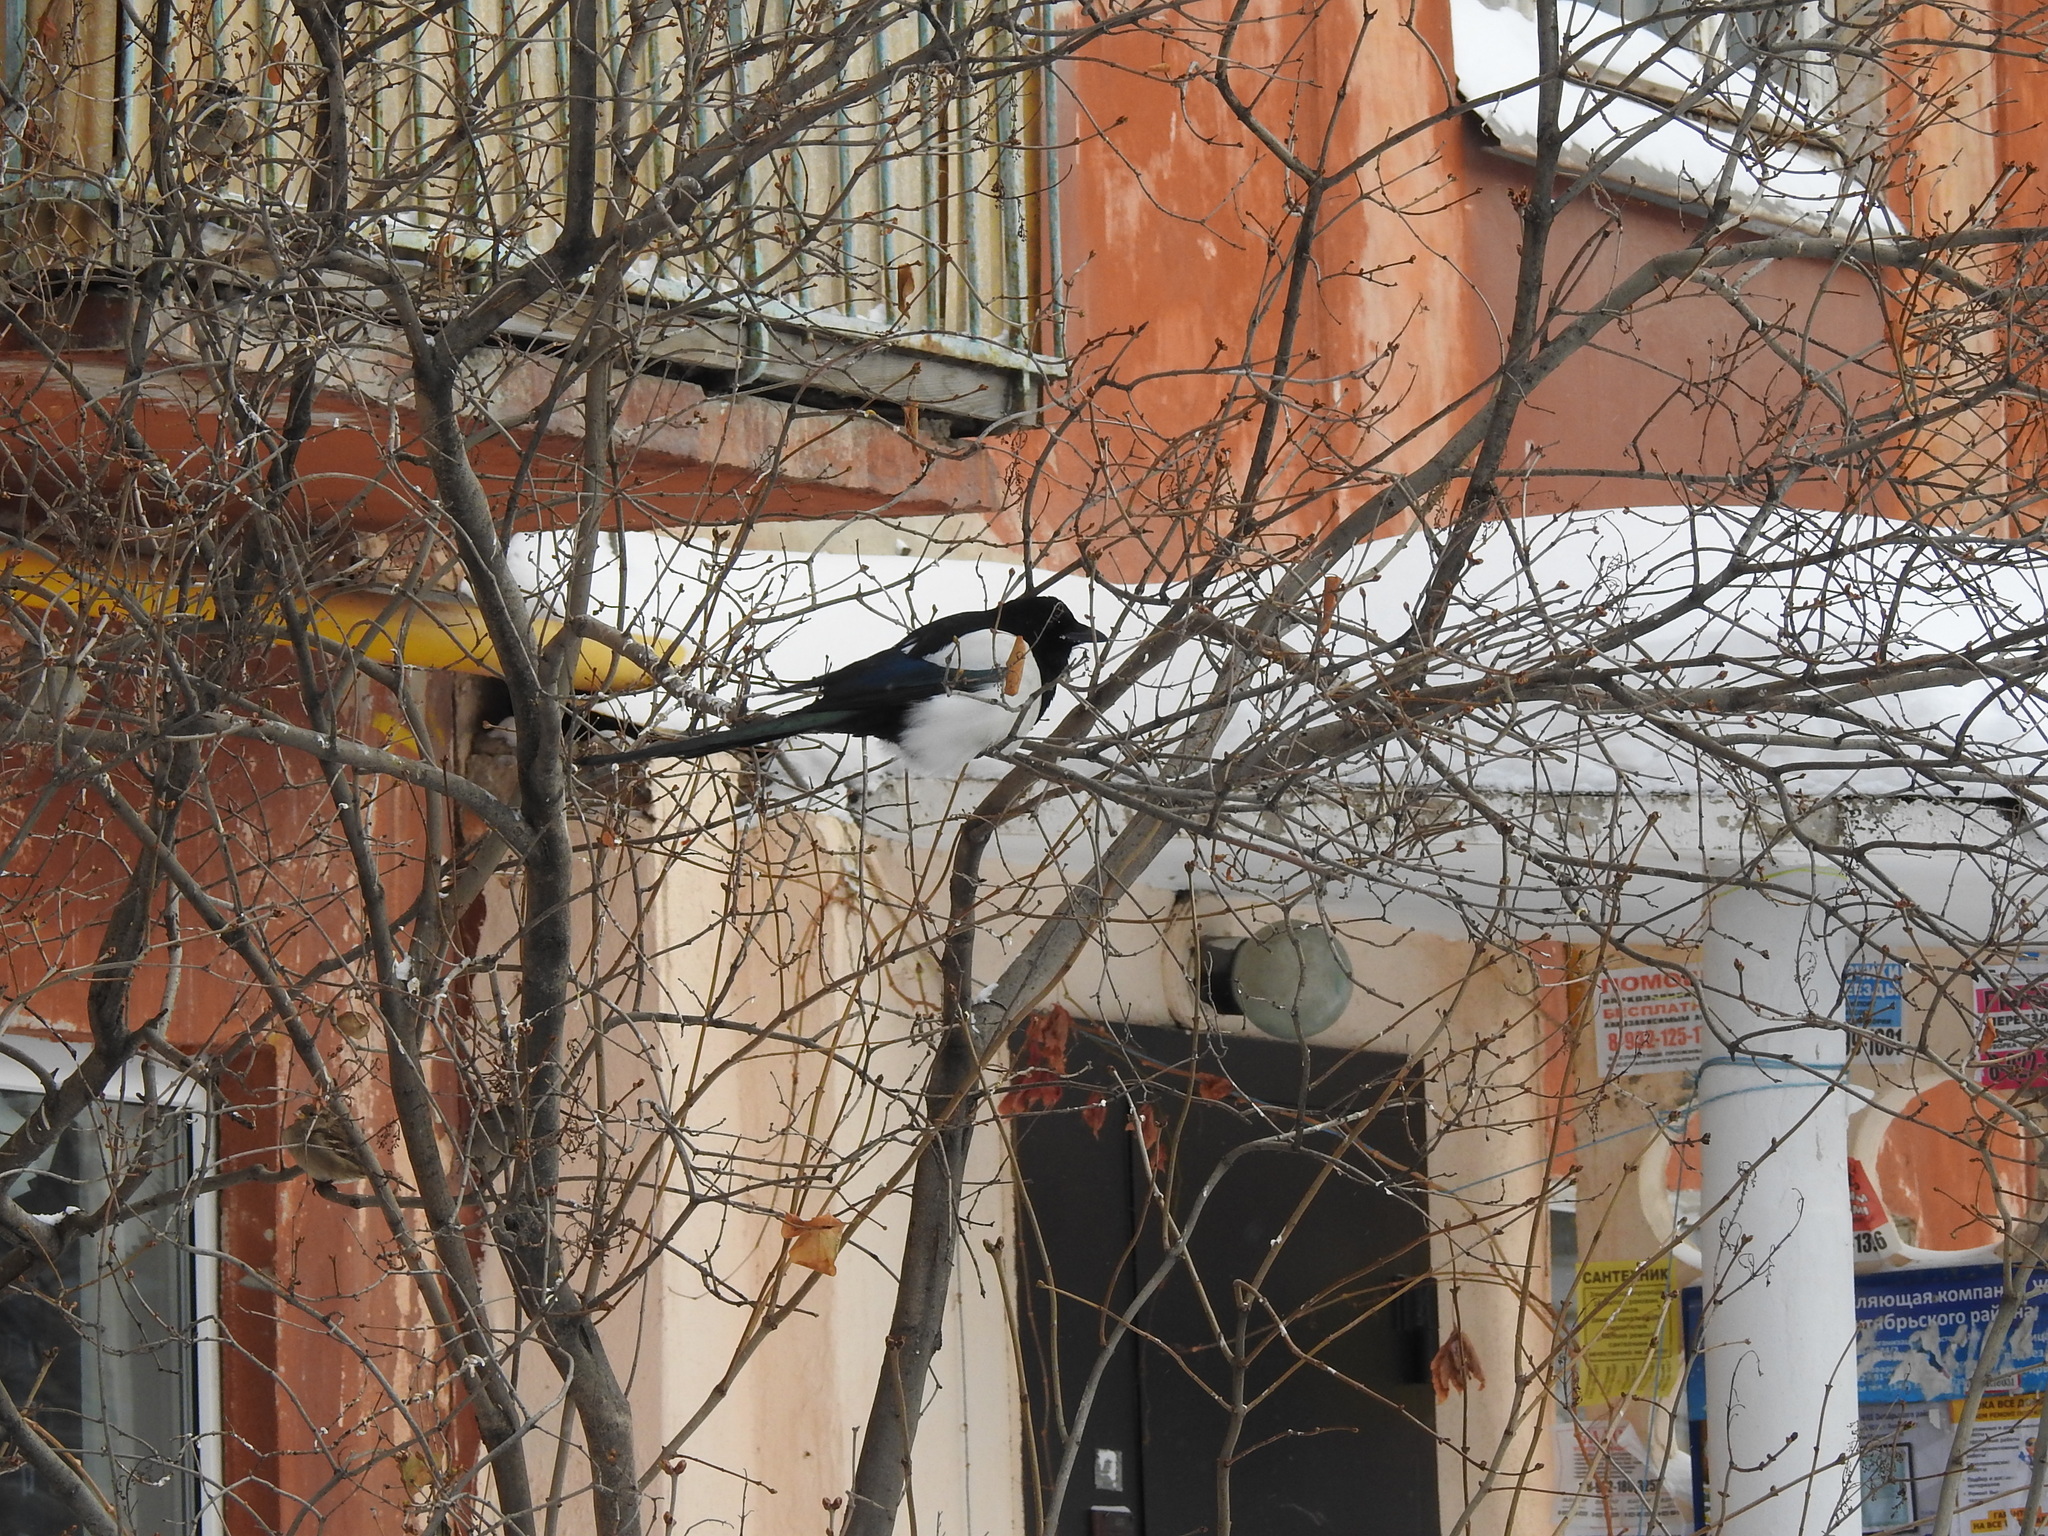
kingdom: Animalia
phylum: Chordata
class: Aves
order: Passeriformes
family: Corvidae
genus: Pica
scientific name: Pica pica
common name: Eurasian magpie
